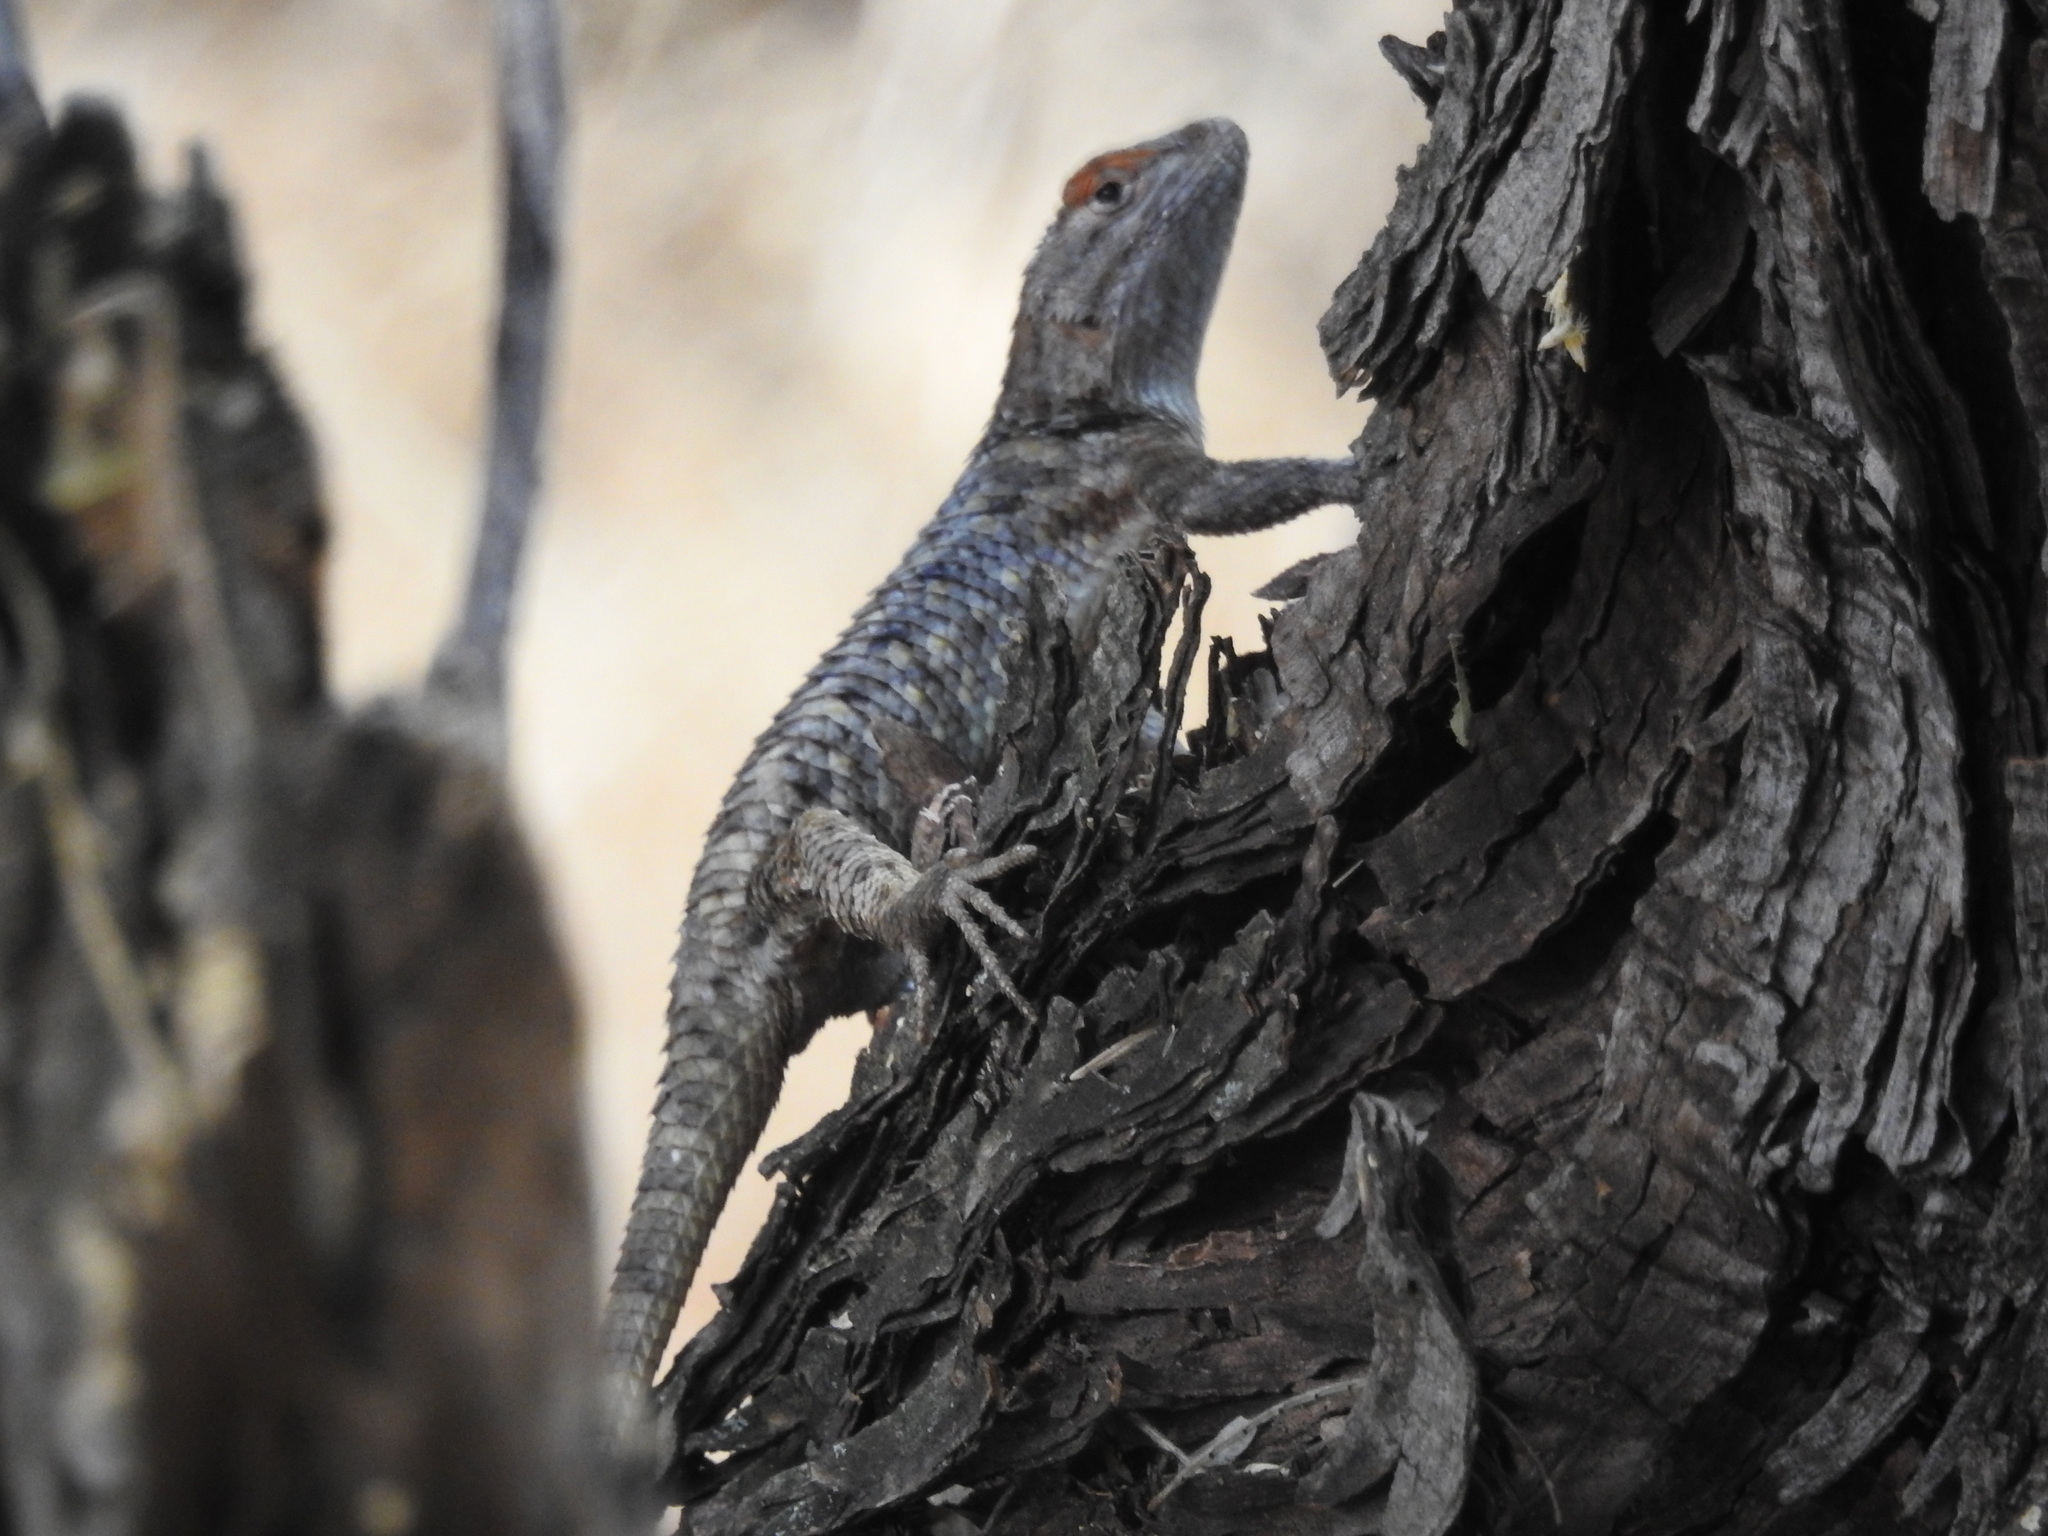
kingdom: Animalia
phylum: Chordata
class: Squamata
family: Phrynosomatidae
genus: Sceloporus
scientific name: Sceloporus magister
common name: Desert spiny lizard
